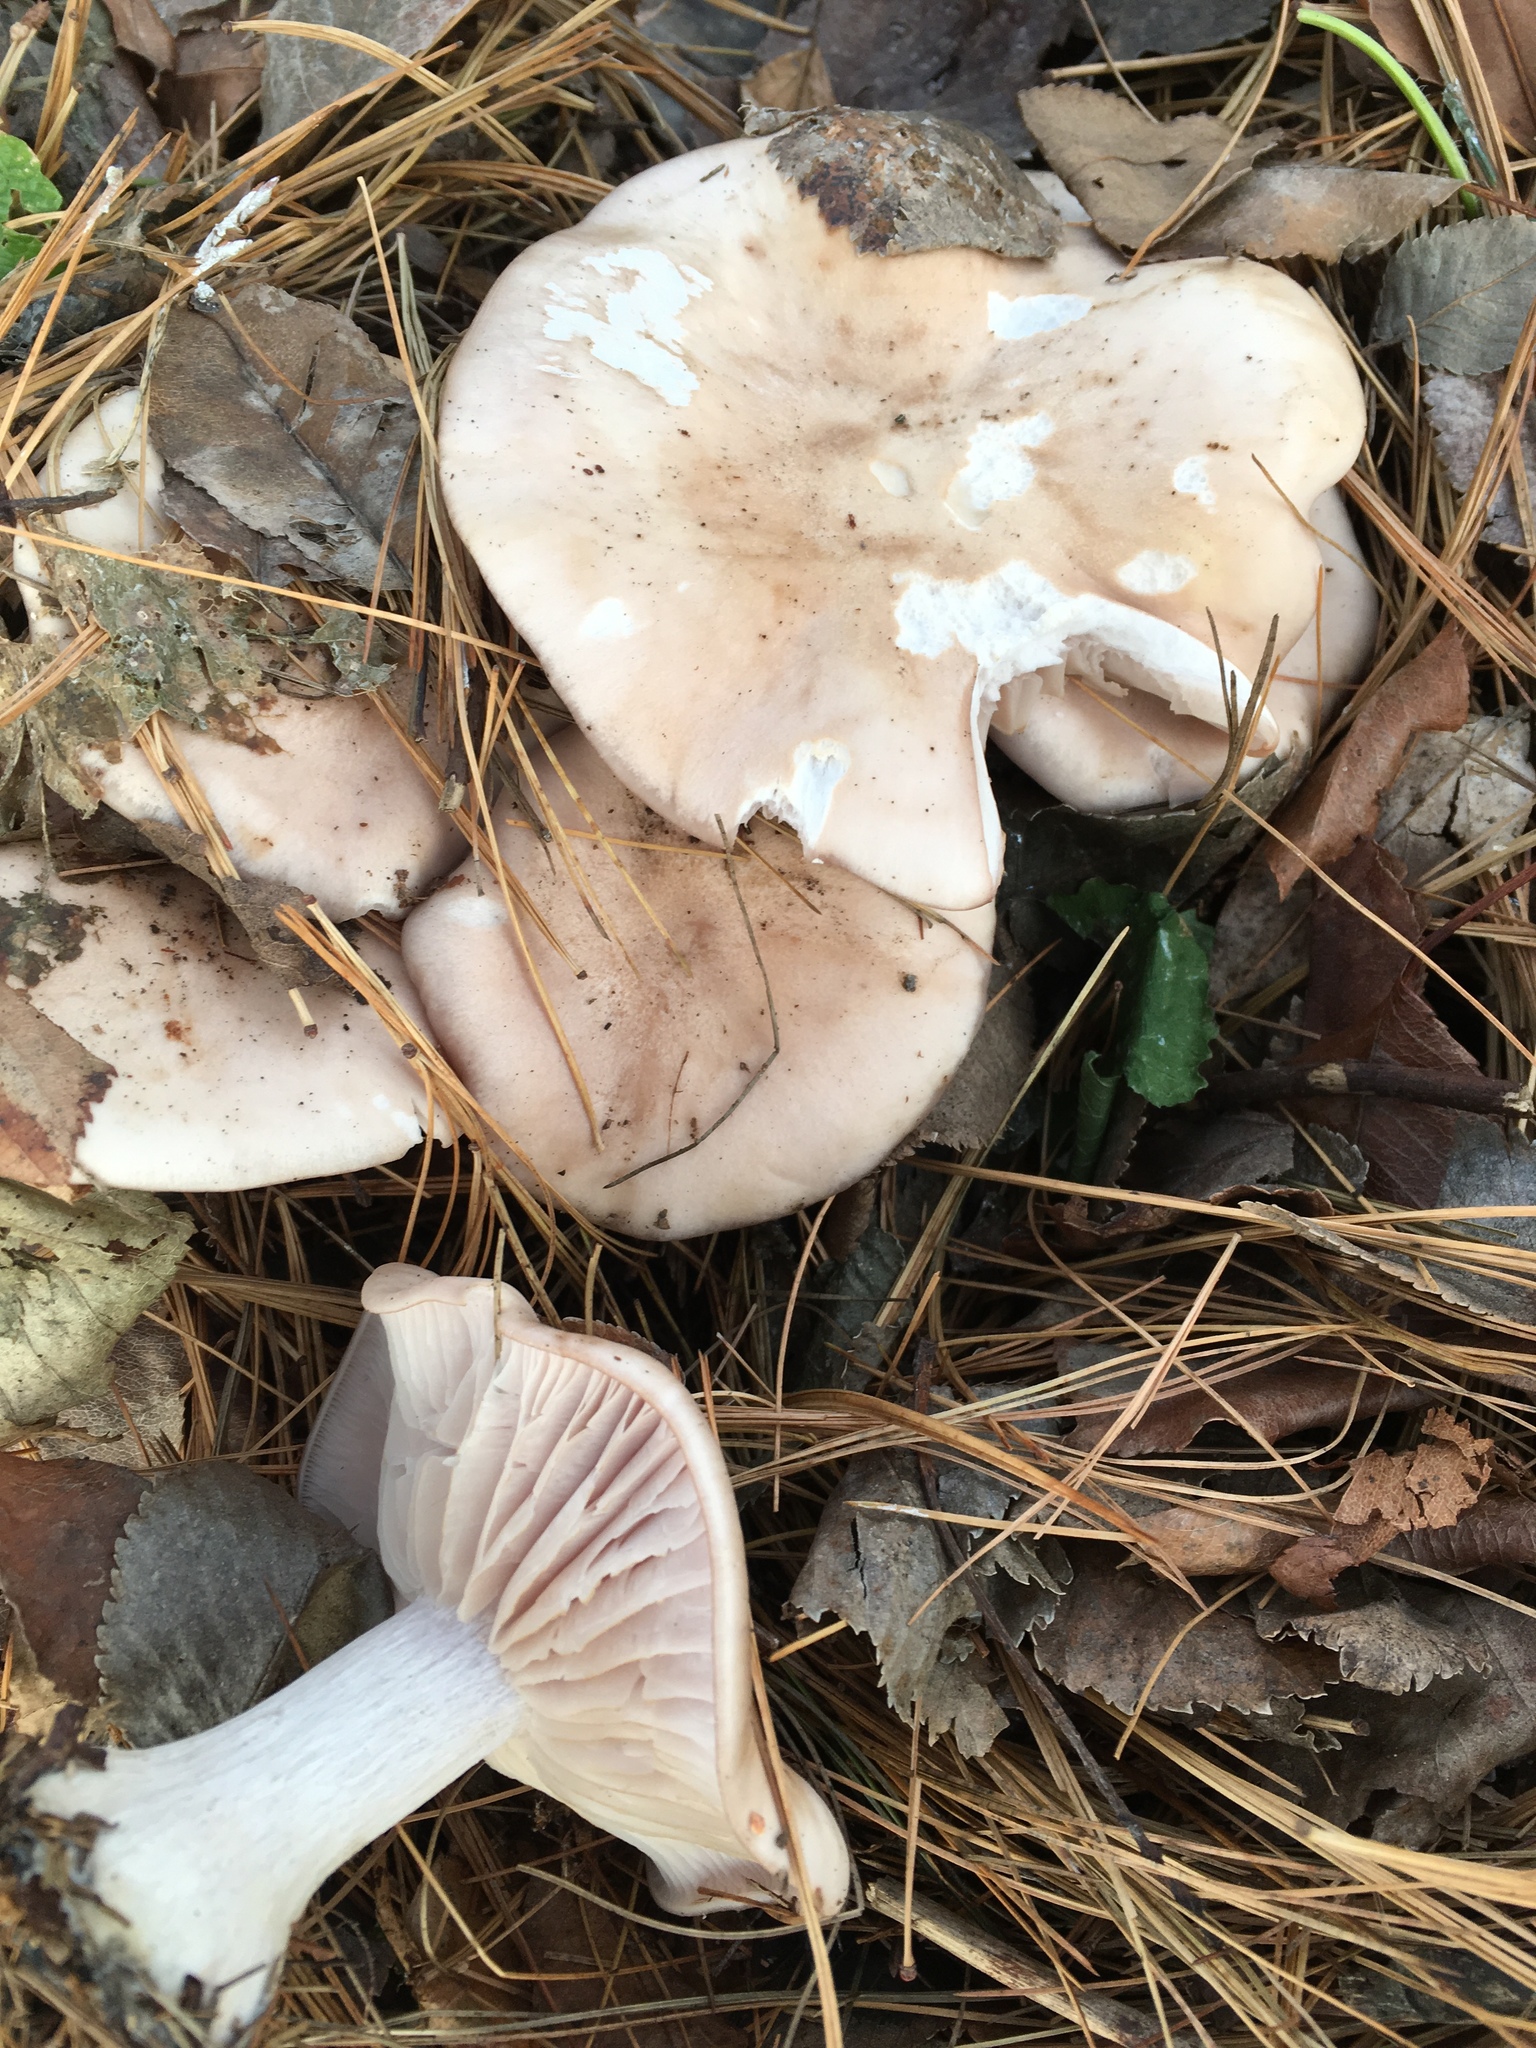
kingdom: Fungi
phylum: Basidiomycota
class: Agaricomycetes
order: Agaricales
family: Tricholomataceae
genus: Collybia
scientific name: Collybia
